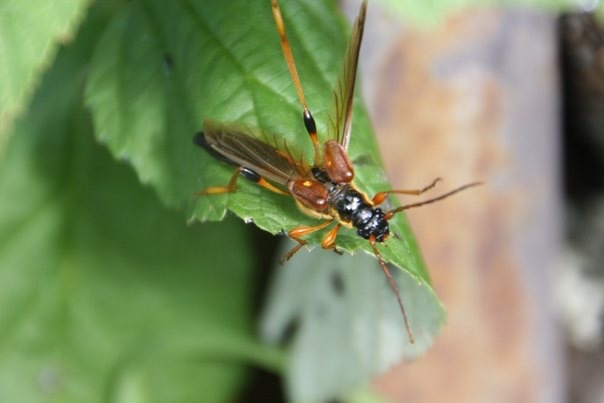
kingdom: Animalia
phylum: Arthropoda
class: Insecta
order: Coleoptera
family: Cerambycidae
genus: Necydalis
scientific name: Necydalis major
